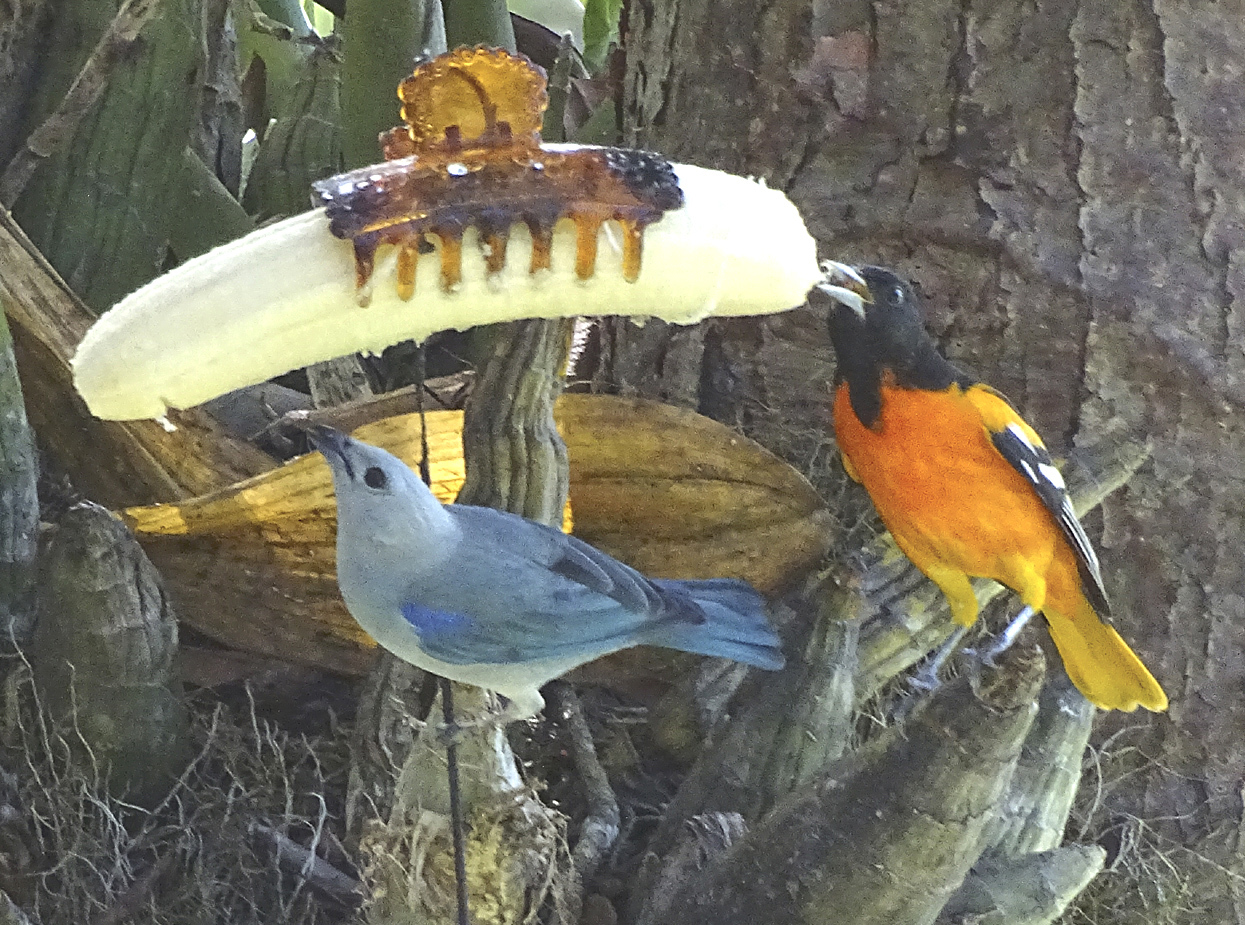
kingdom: Animalia
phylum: Chordata
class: Aves
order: Passeriformes
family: Thraupidae
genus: Thraupis
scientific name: Thraupis episcopus
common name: Blue-grey tanager
